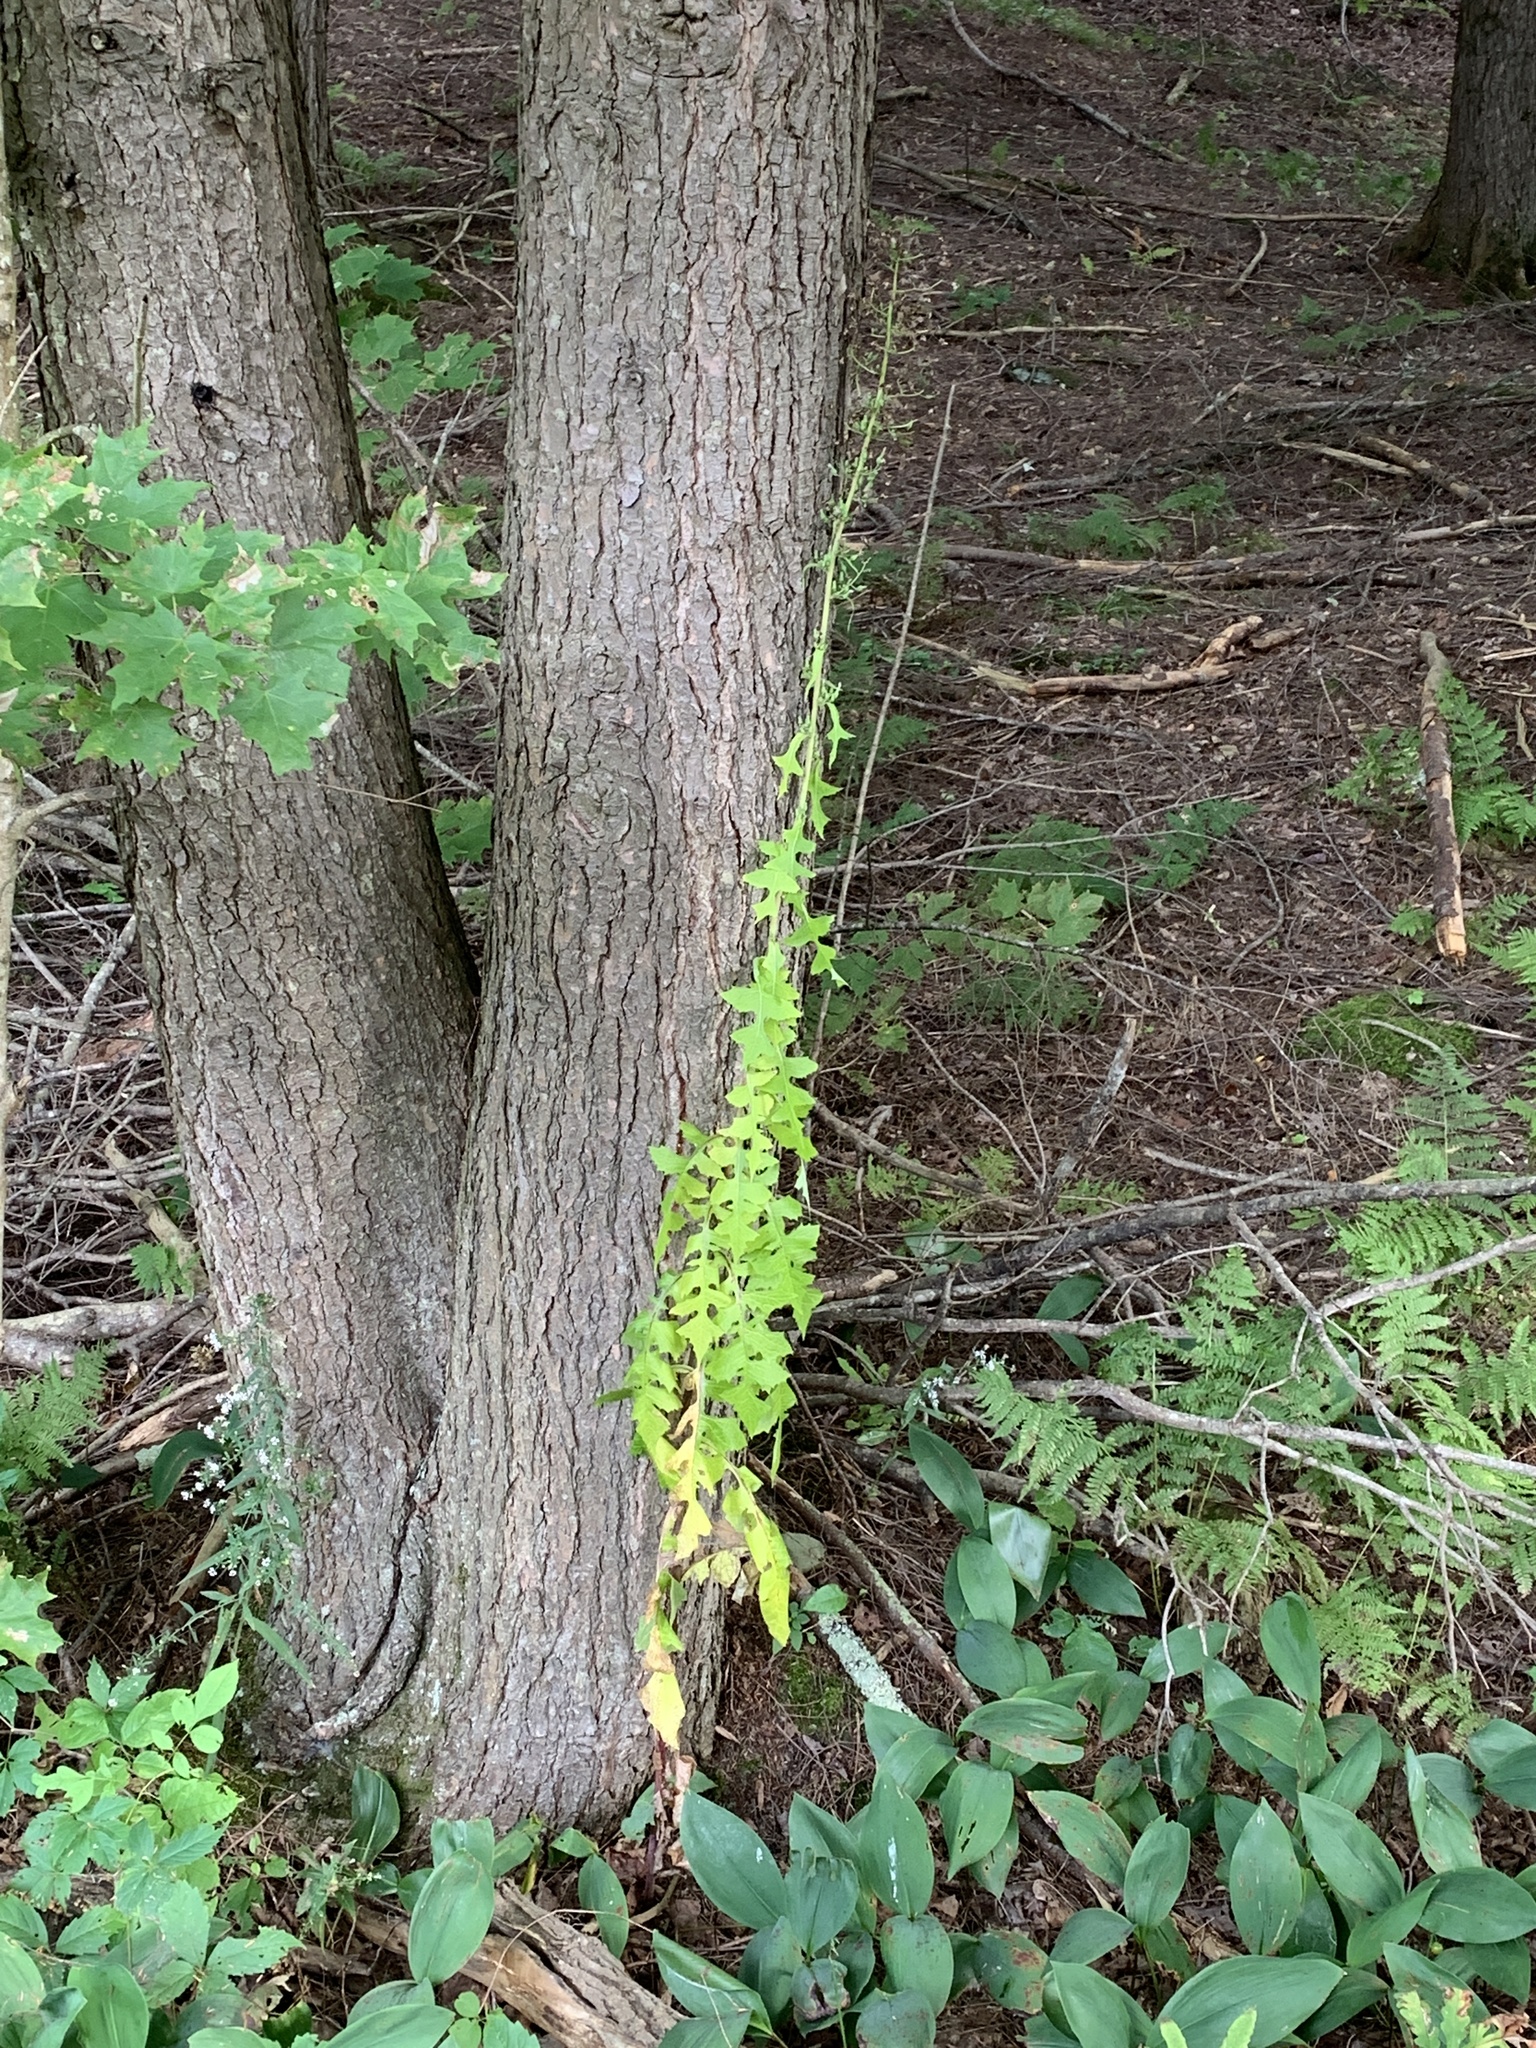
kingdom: Plantae
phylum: Tracheophyta
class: Magnoliopsida
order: Asterales
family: Asteraceae
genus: Lactuca
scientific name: Lactuca biennis
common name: Blue wood lettuce
